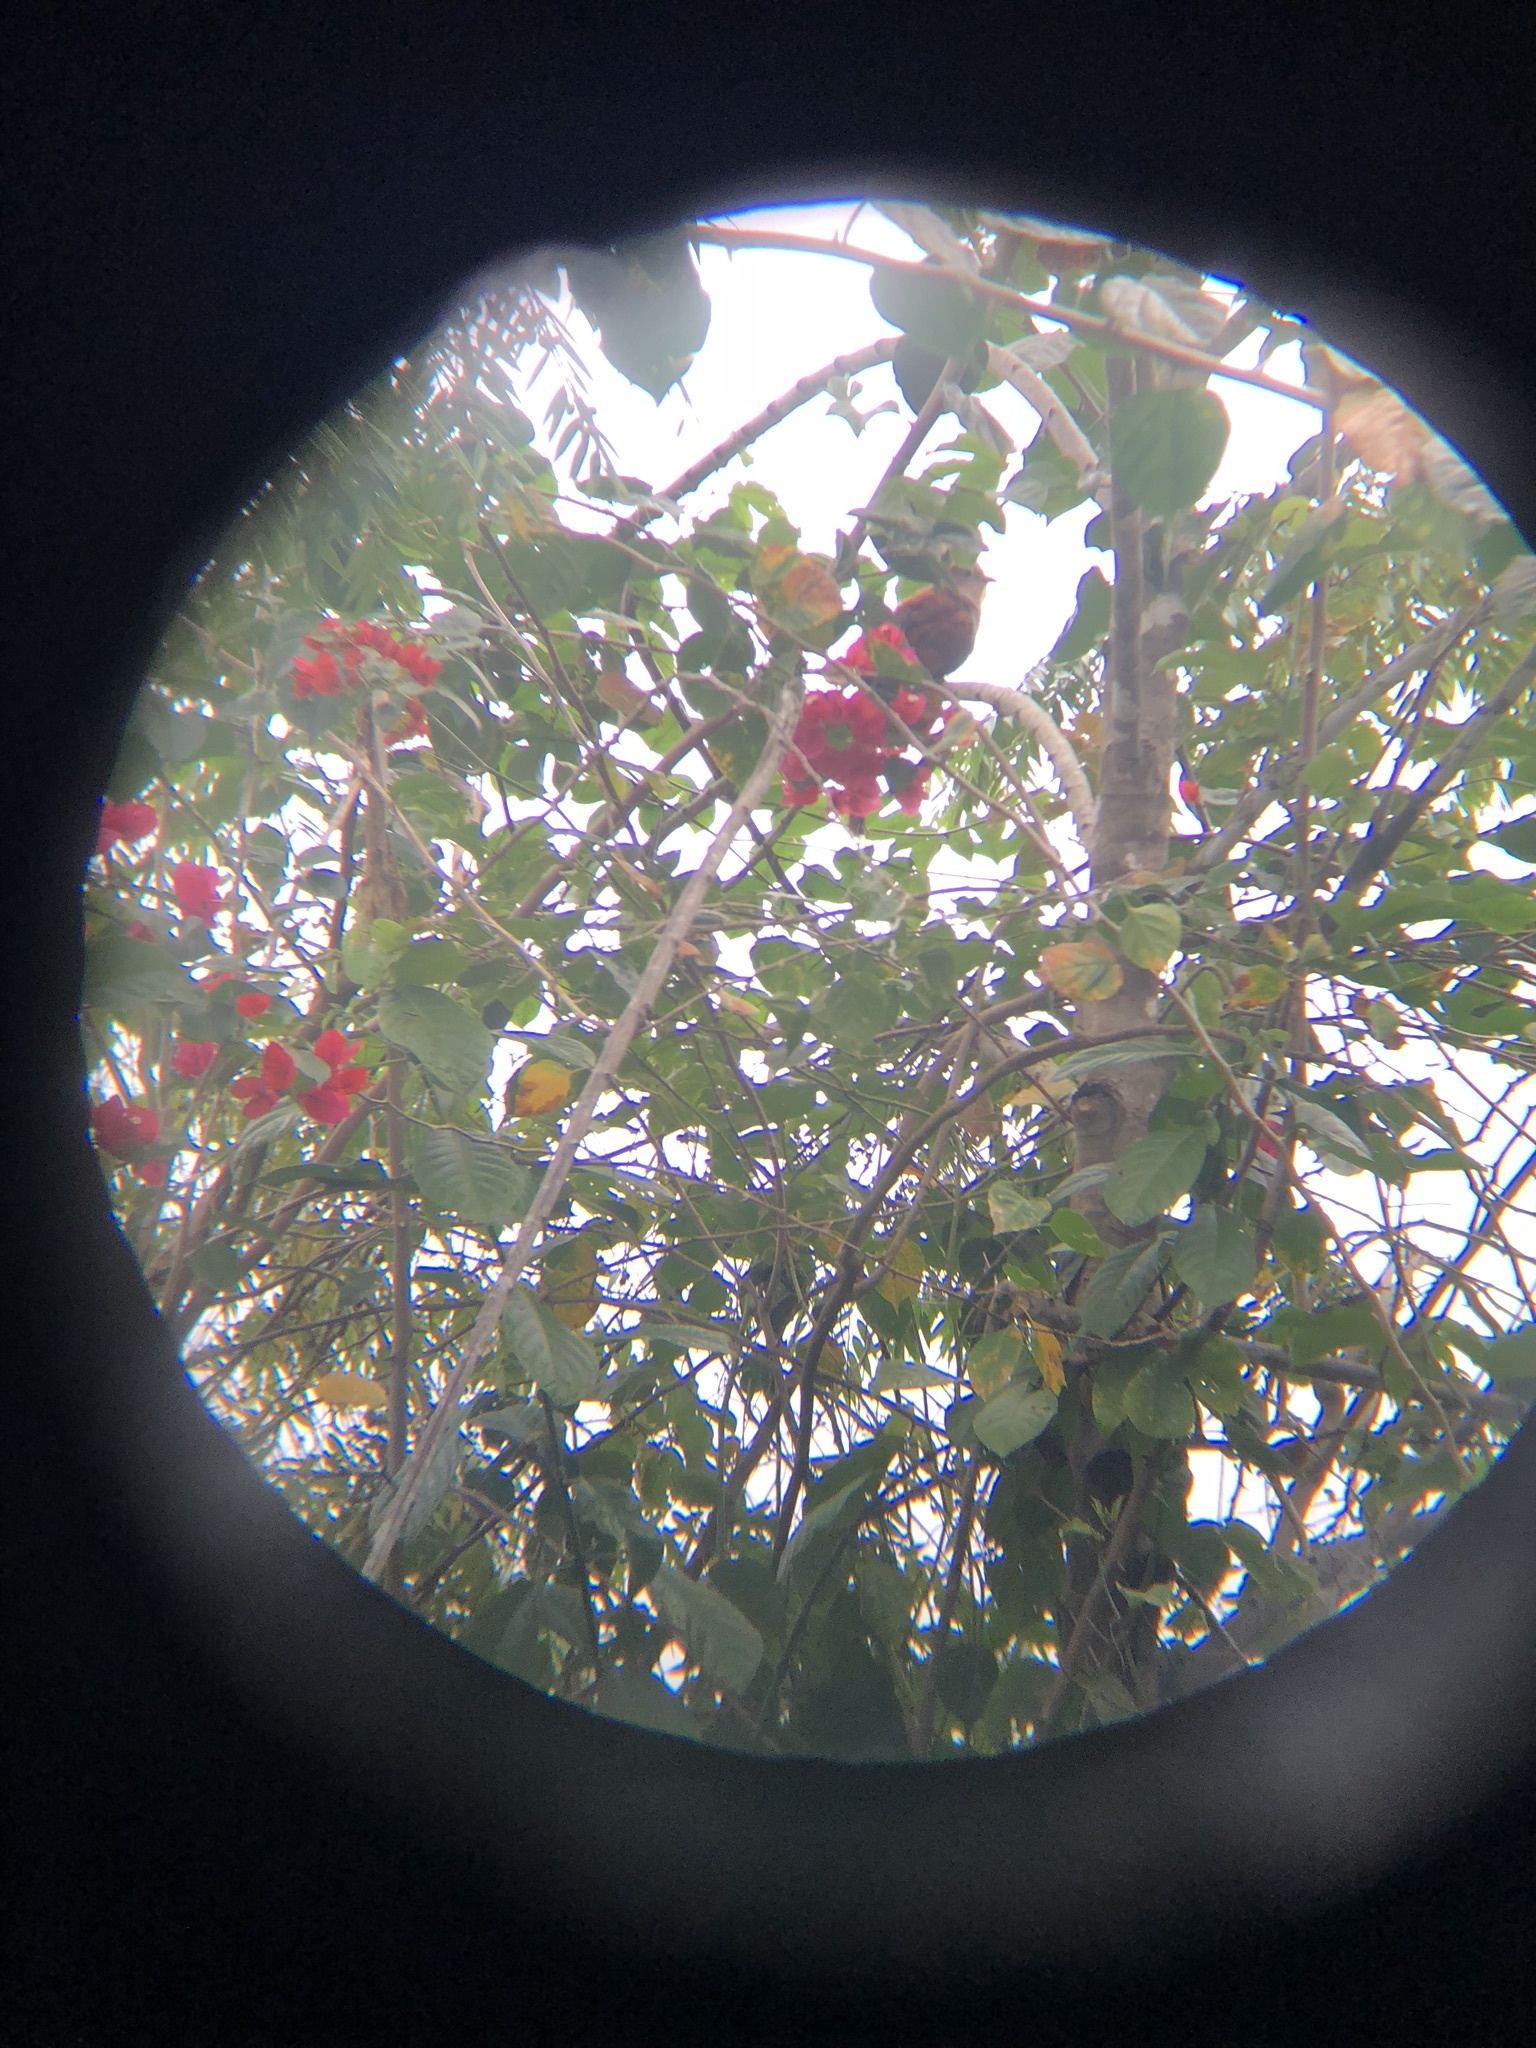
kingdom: Animalia
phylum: Chordata
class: Aves
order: Cuculiformes
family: Cuculidae
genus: Piaya
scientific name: Piaya cayana
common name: Squirrel cuckoo
